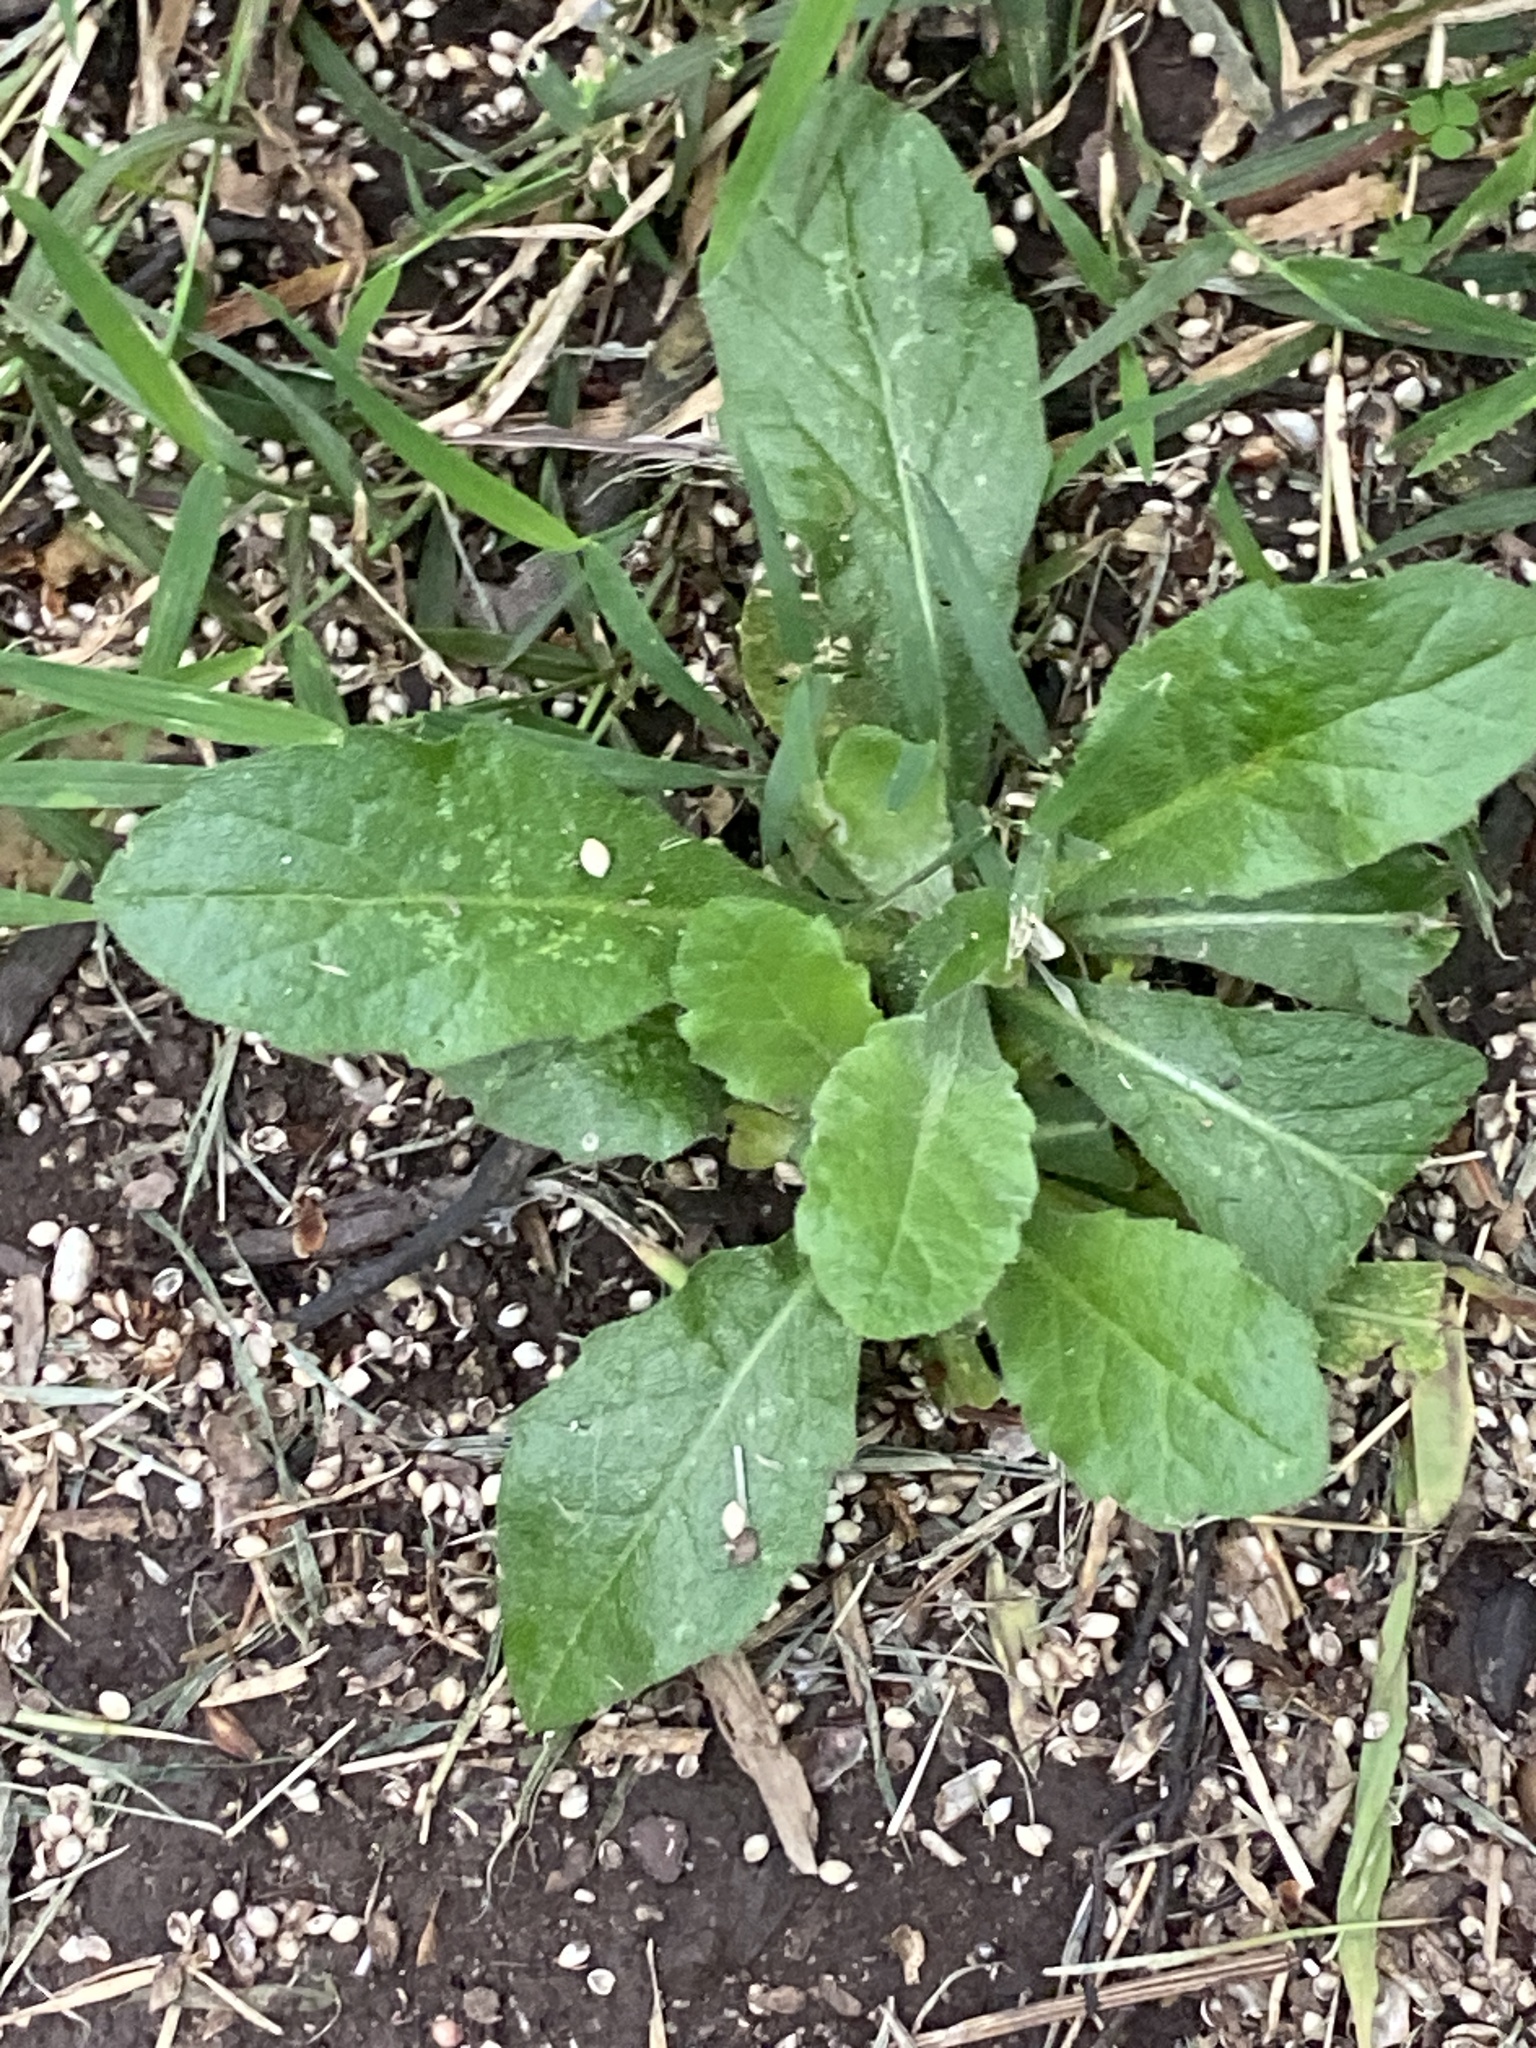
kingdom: Plantae
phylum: Tracheophyta
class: Magnoliopsida
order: Asterales
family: Asteraceae
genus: Erigeron
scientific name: Erigeron philadelphicus
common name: Robin's-plantain
